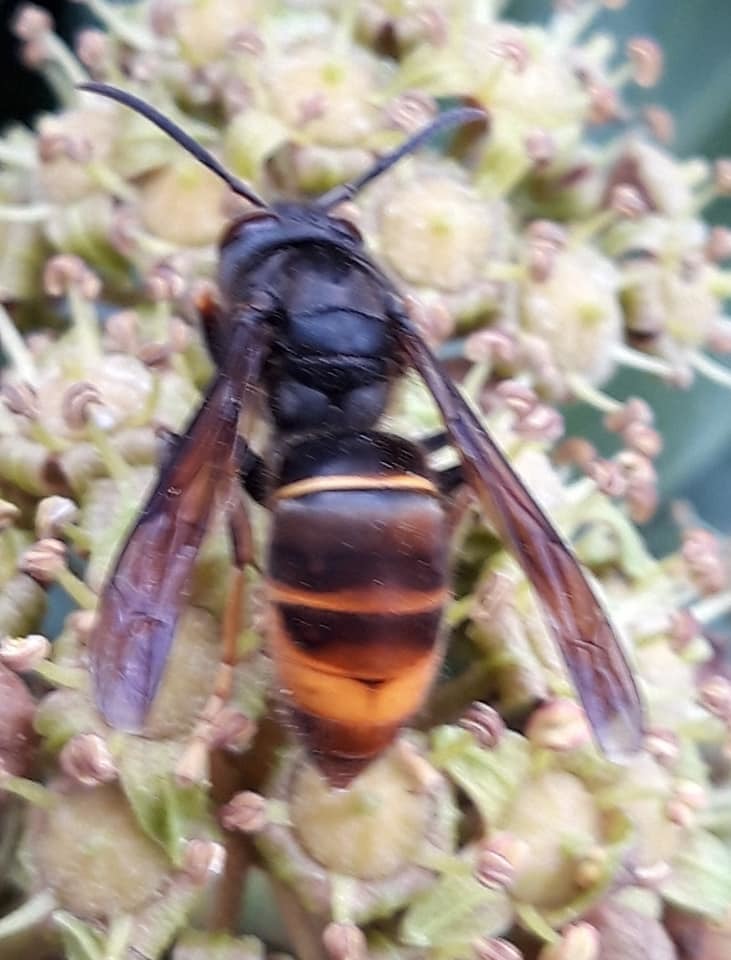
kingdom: Animalia
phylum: Arthropoda
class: Insecta
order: Hymenoptera
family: Vespidae
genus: Vespa
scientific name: Vespa velutina
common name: Asian hornet
